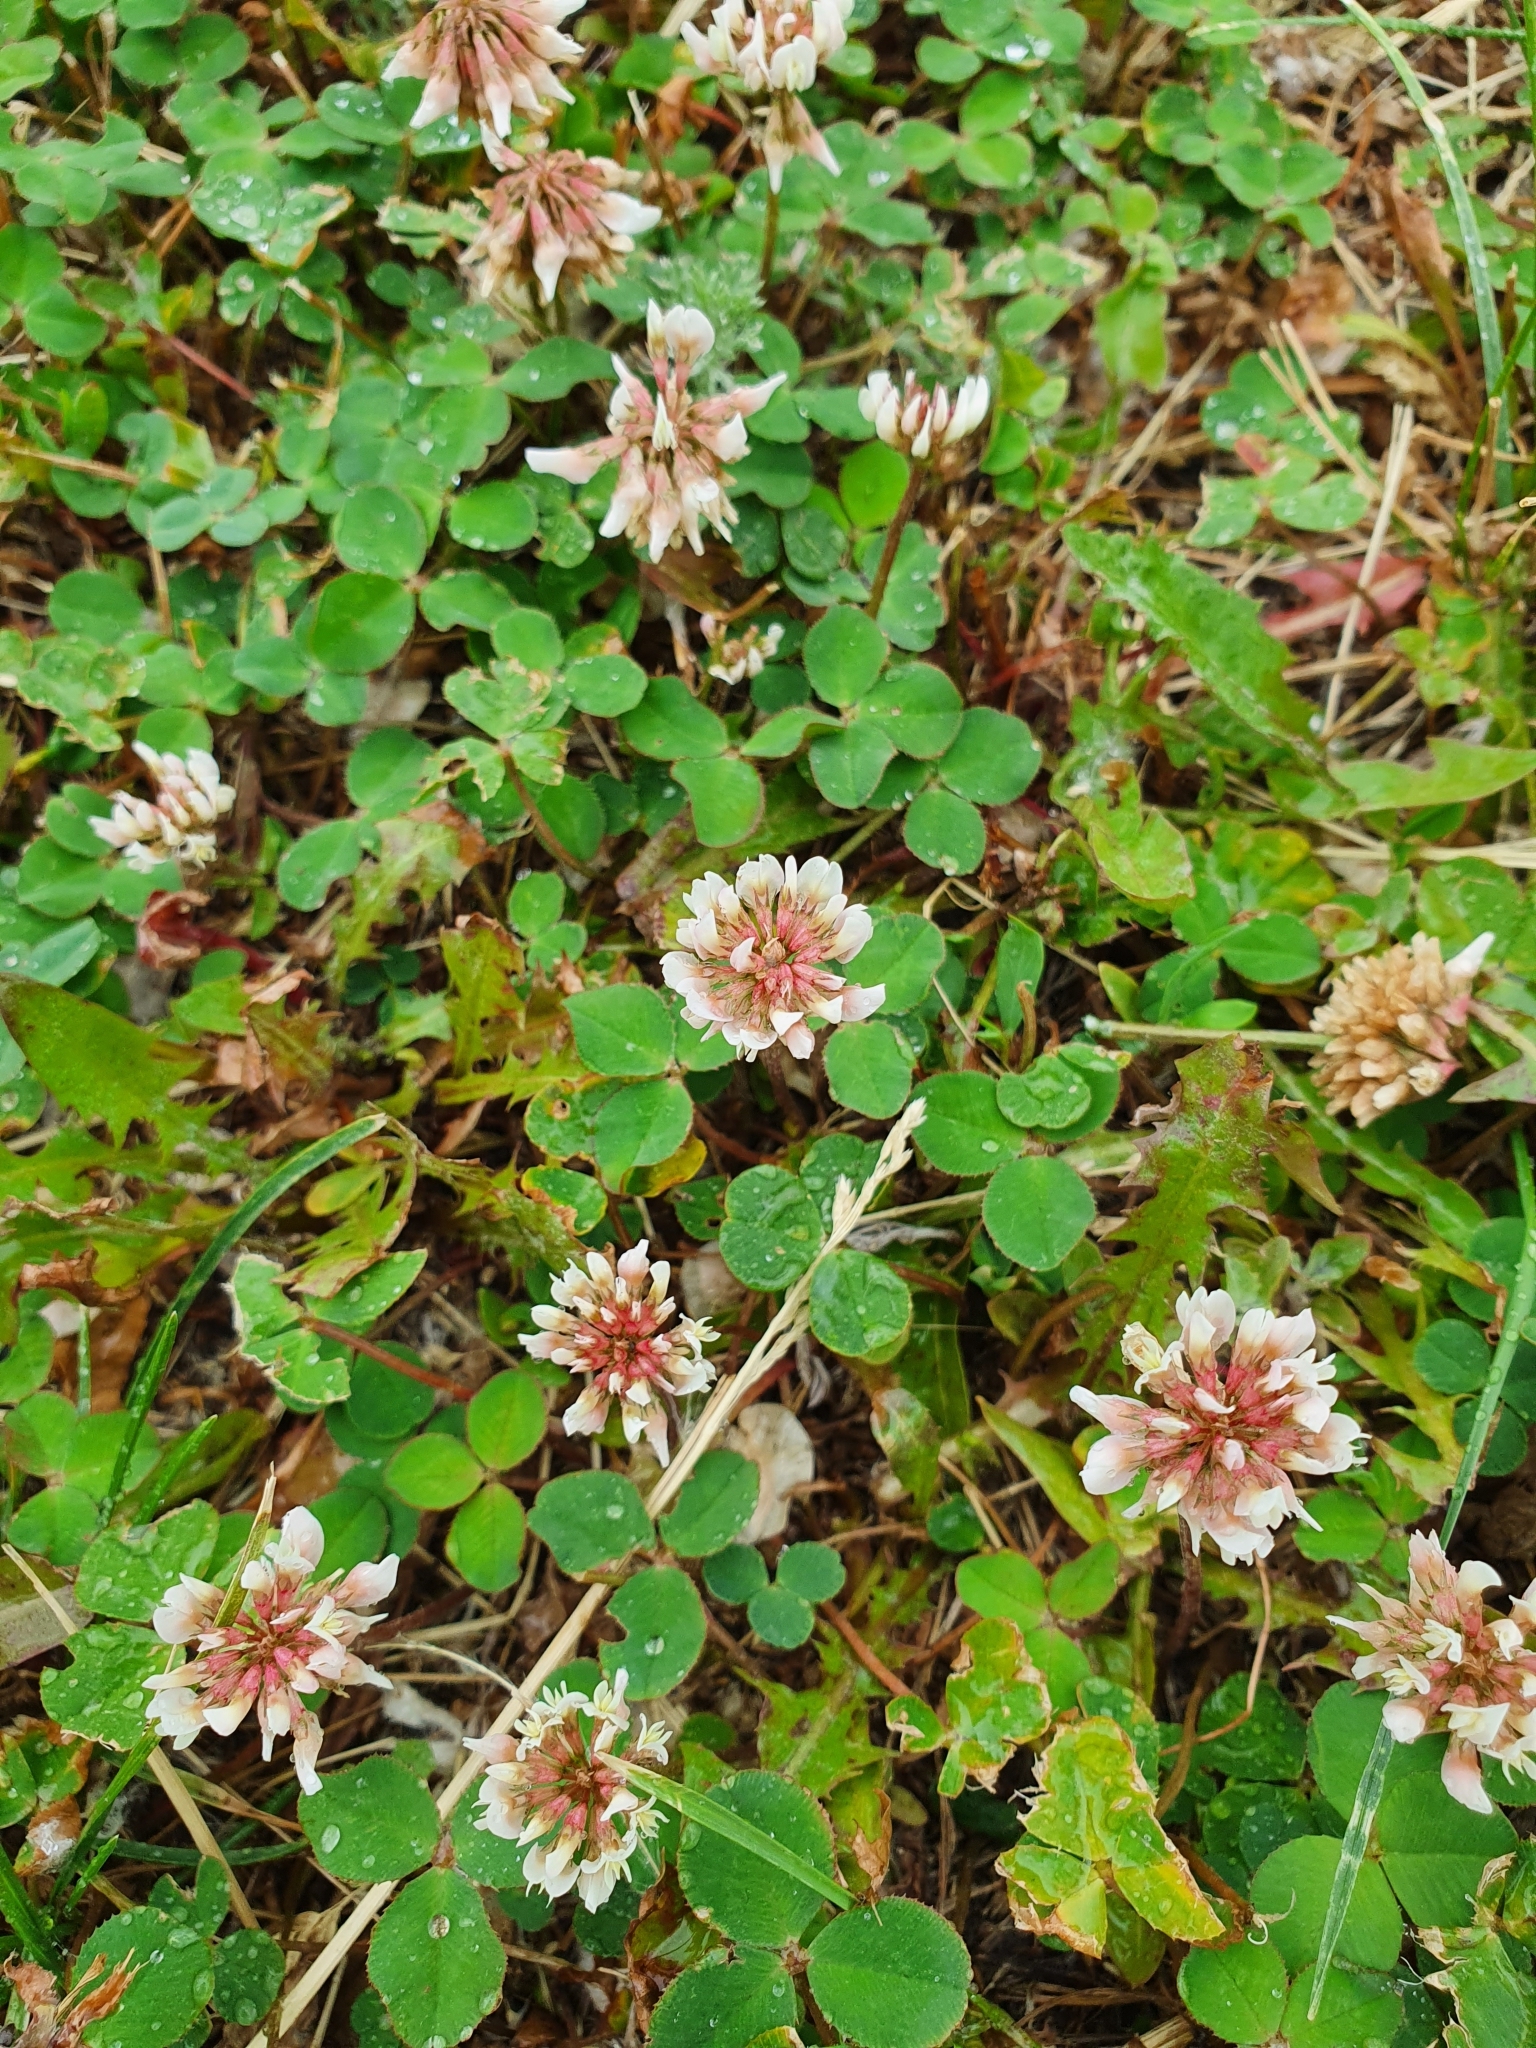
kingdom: Plantae
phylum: Tracheophyta
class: Magnoliopsida
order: Fabales
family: Fabaceae
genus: Trifolium
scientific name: Trifolium repens
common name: White clover
